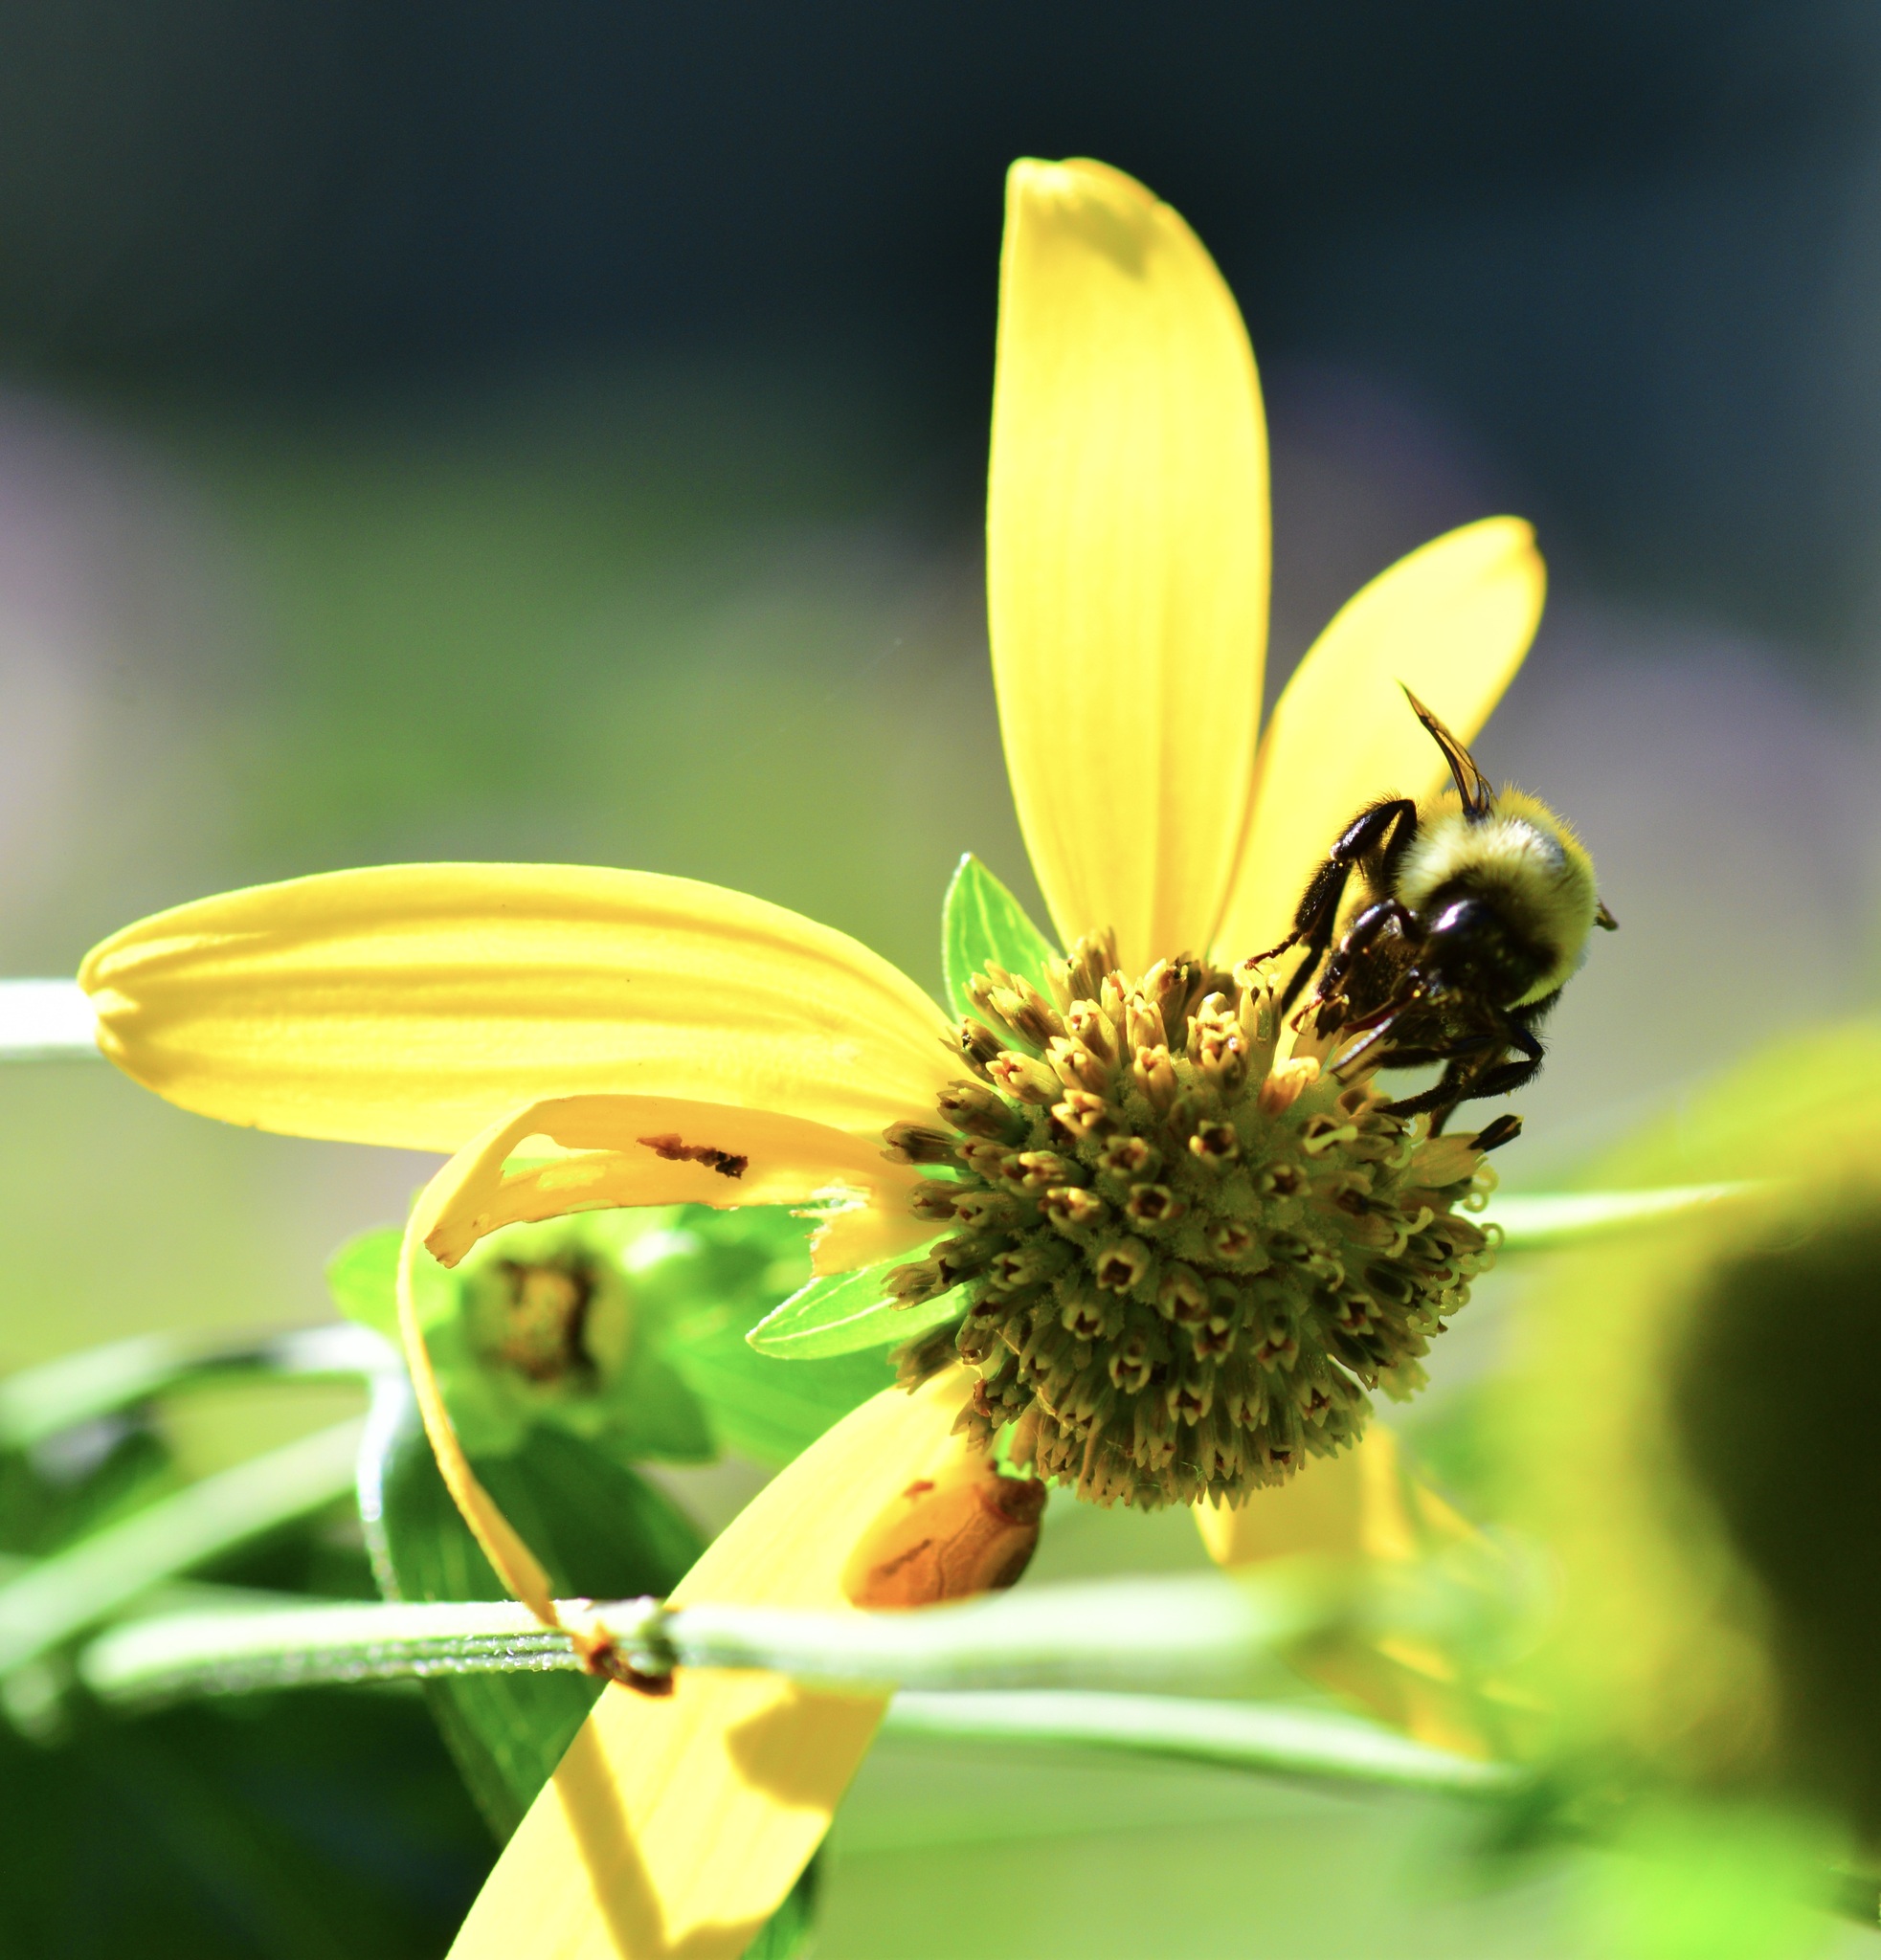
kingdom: Animalia
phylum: Arthropoda
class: Insecta
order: Hymenoptera
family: Apidae
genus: Bombus
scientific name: Bombus impatiens
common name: Common eastern bumble bee
